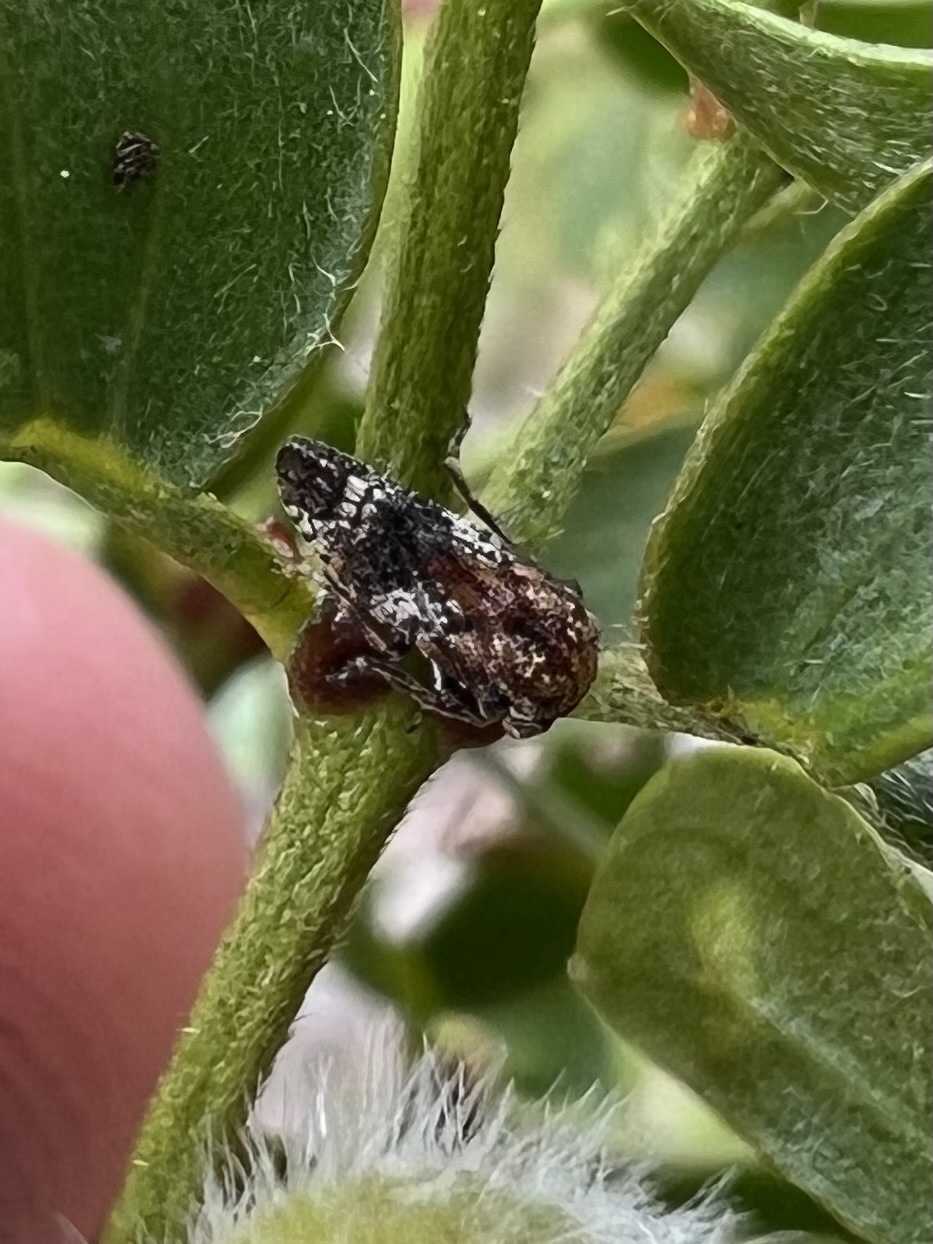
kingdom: Animalia
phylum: Arthropoda
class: Insecta
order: Hemiptera
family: Membracidae
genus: Centrodontus
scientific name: Centrodontus atlas
